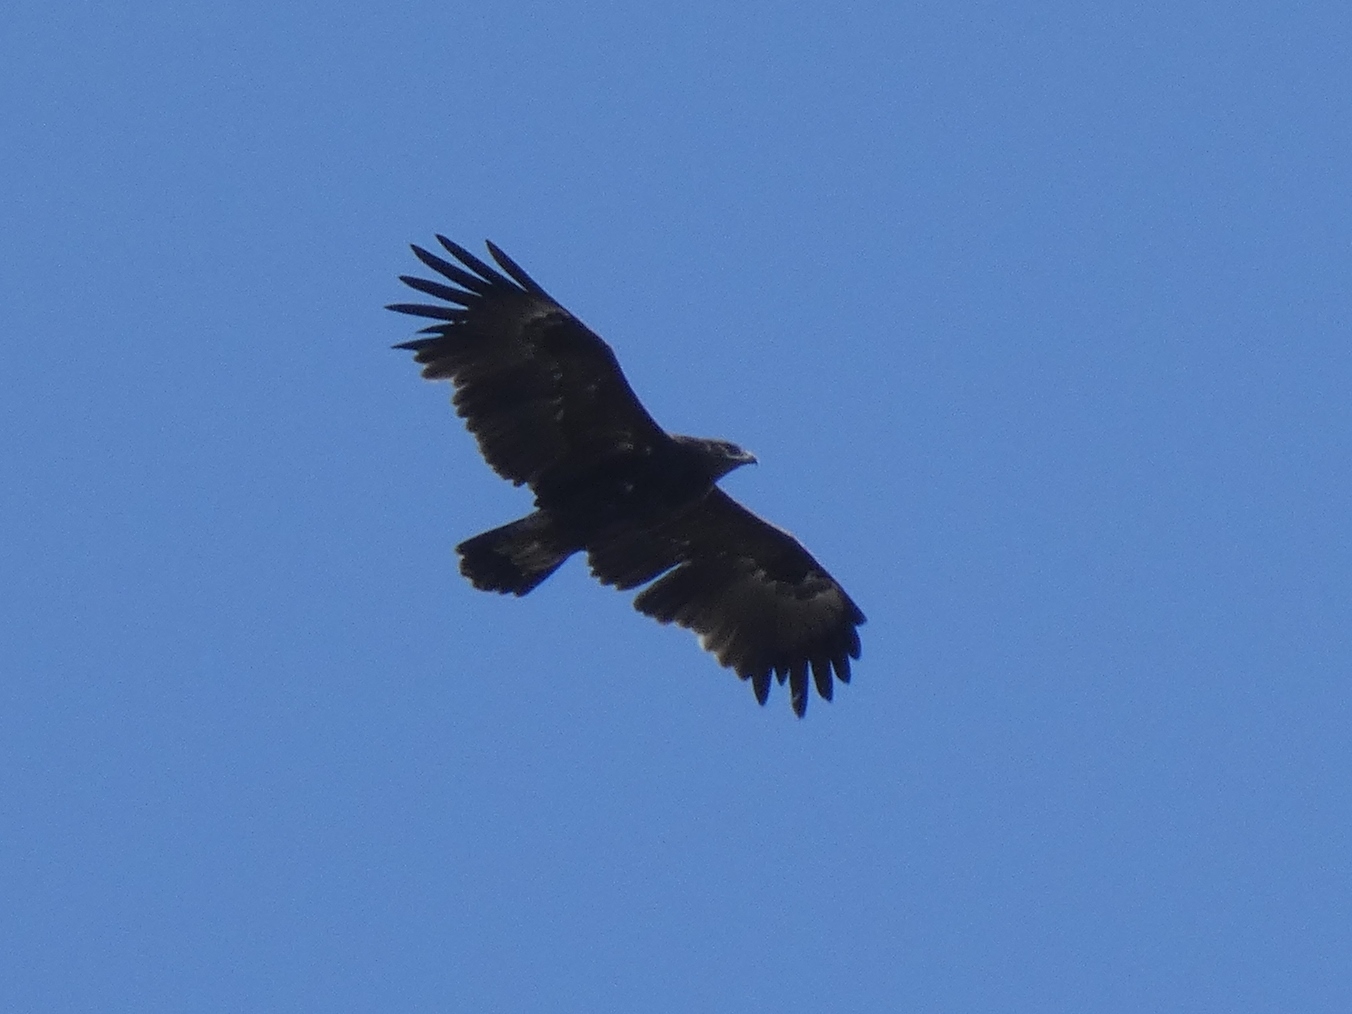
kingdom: Animalia
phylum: Chordata
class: Aves
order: Accipitriformes
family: Accipitridae
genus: Aquila
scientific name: Aquila clanga
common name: Greater spotted eagle
